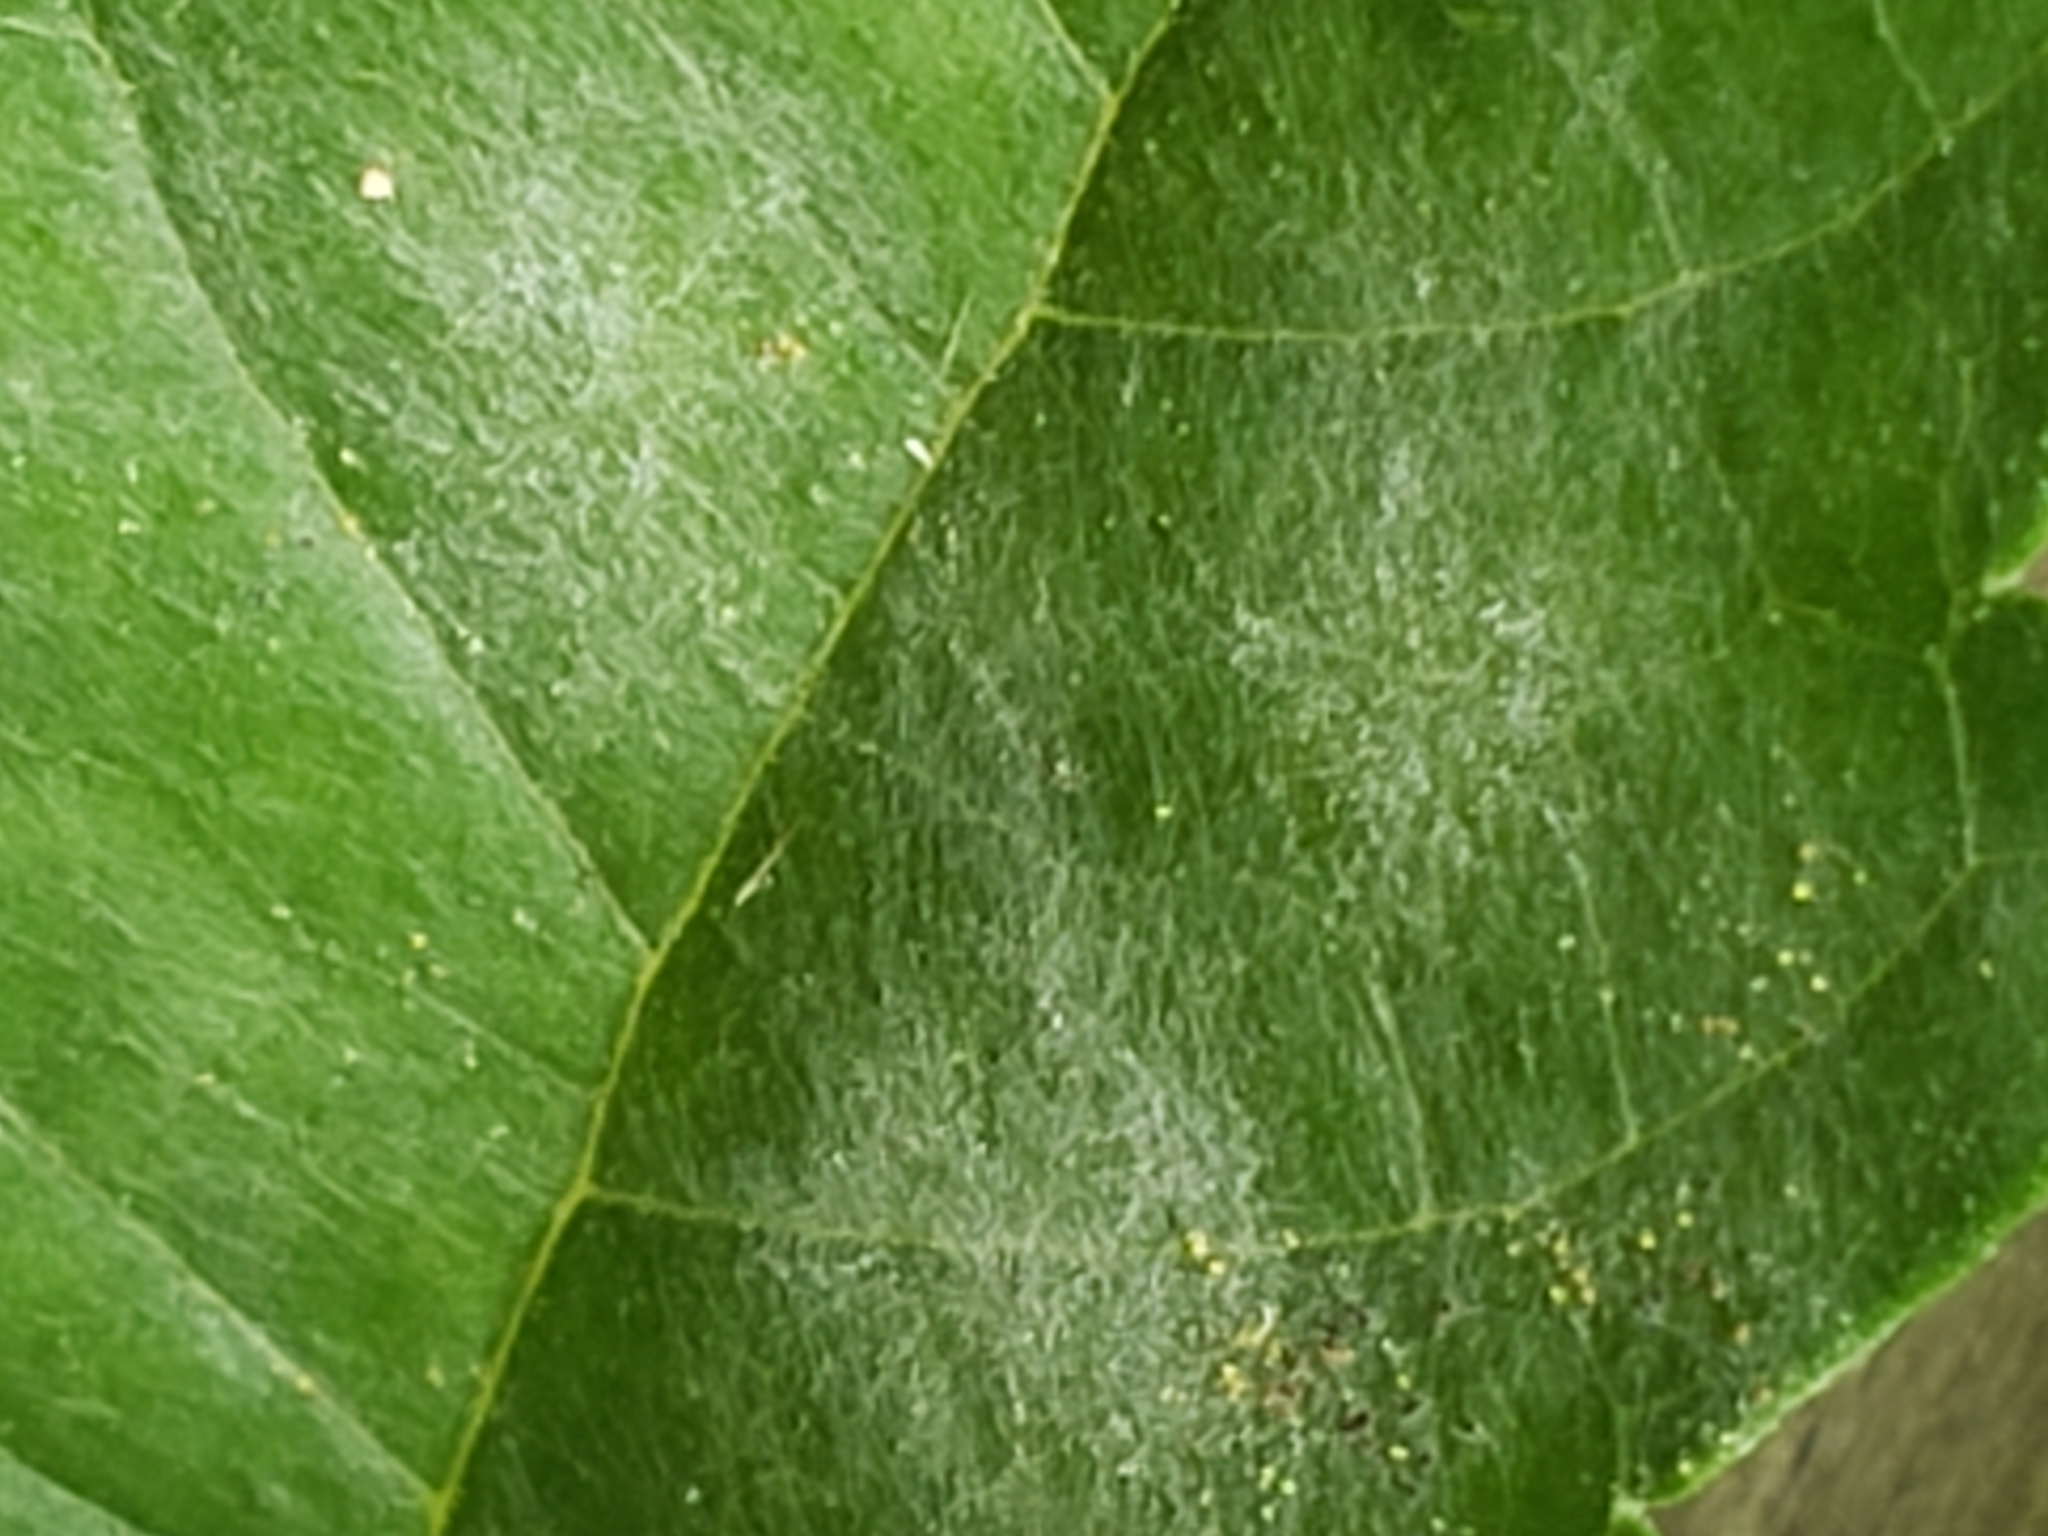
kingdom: Fungi
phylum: Ascomycota
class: Leotiomycetes
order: Helotiales
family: Erysiphaceae
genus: Erysiphe
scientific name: Erysiphe peckii
